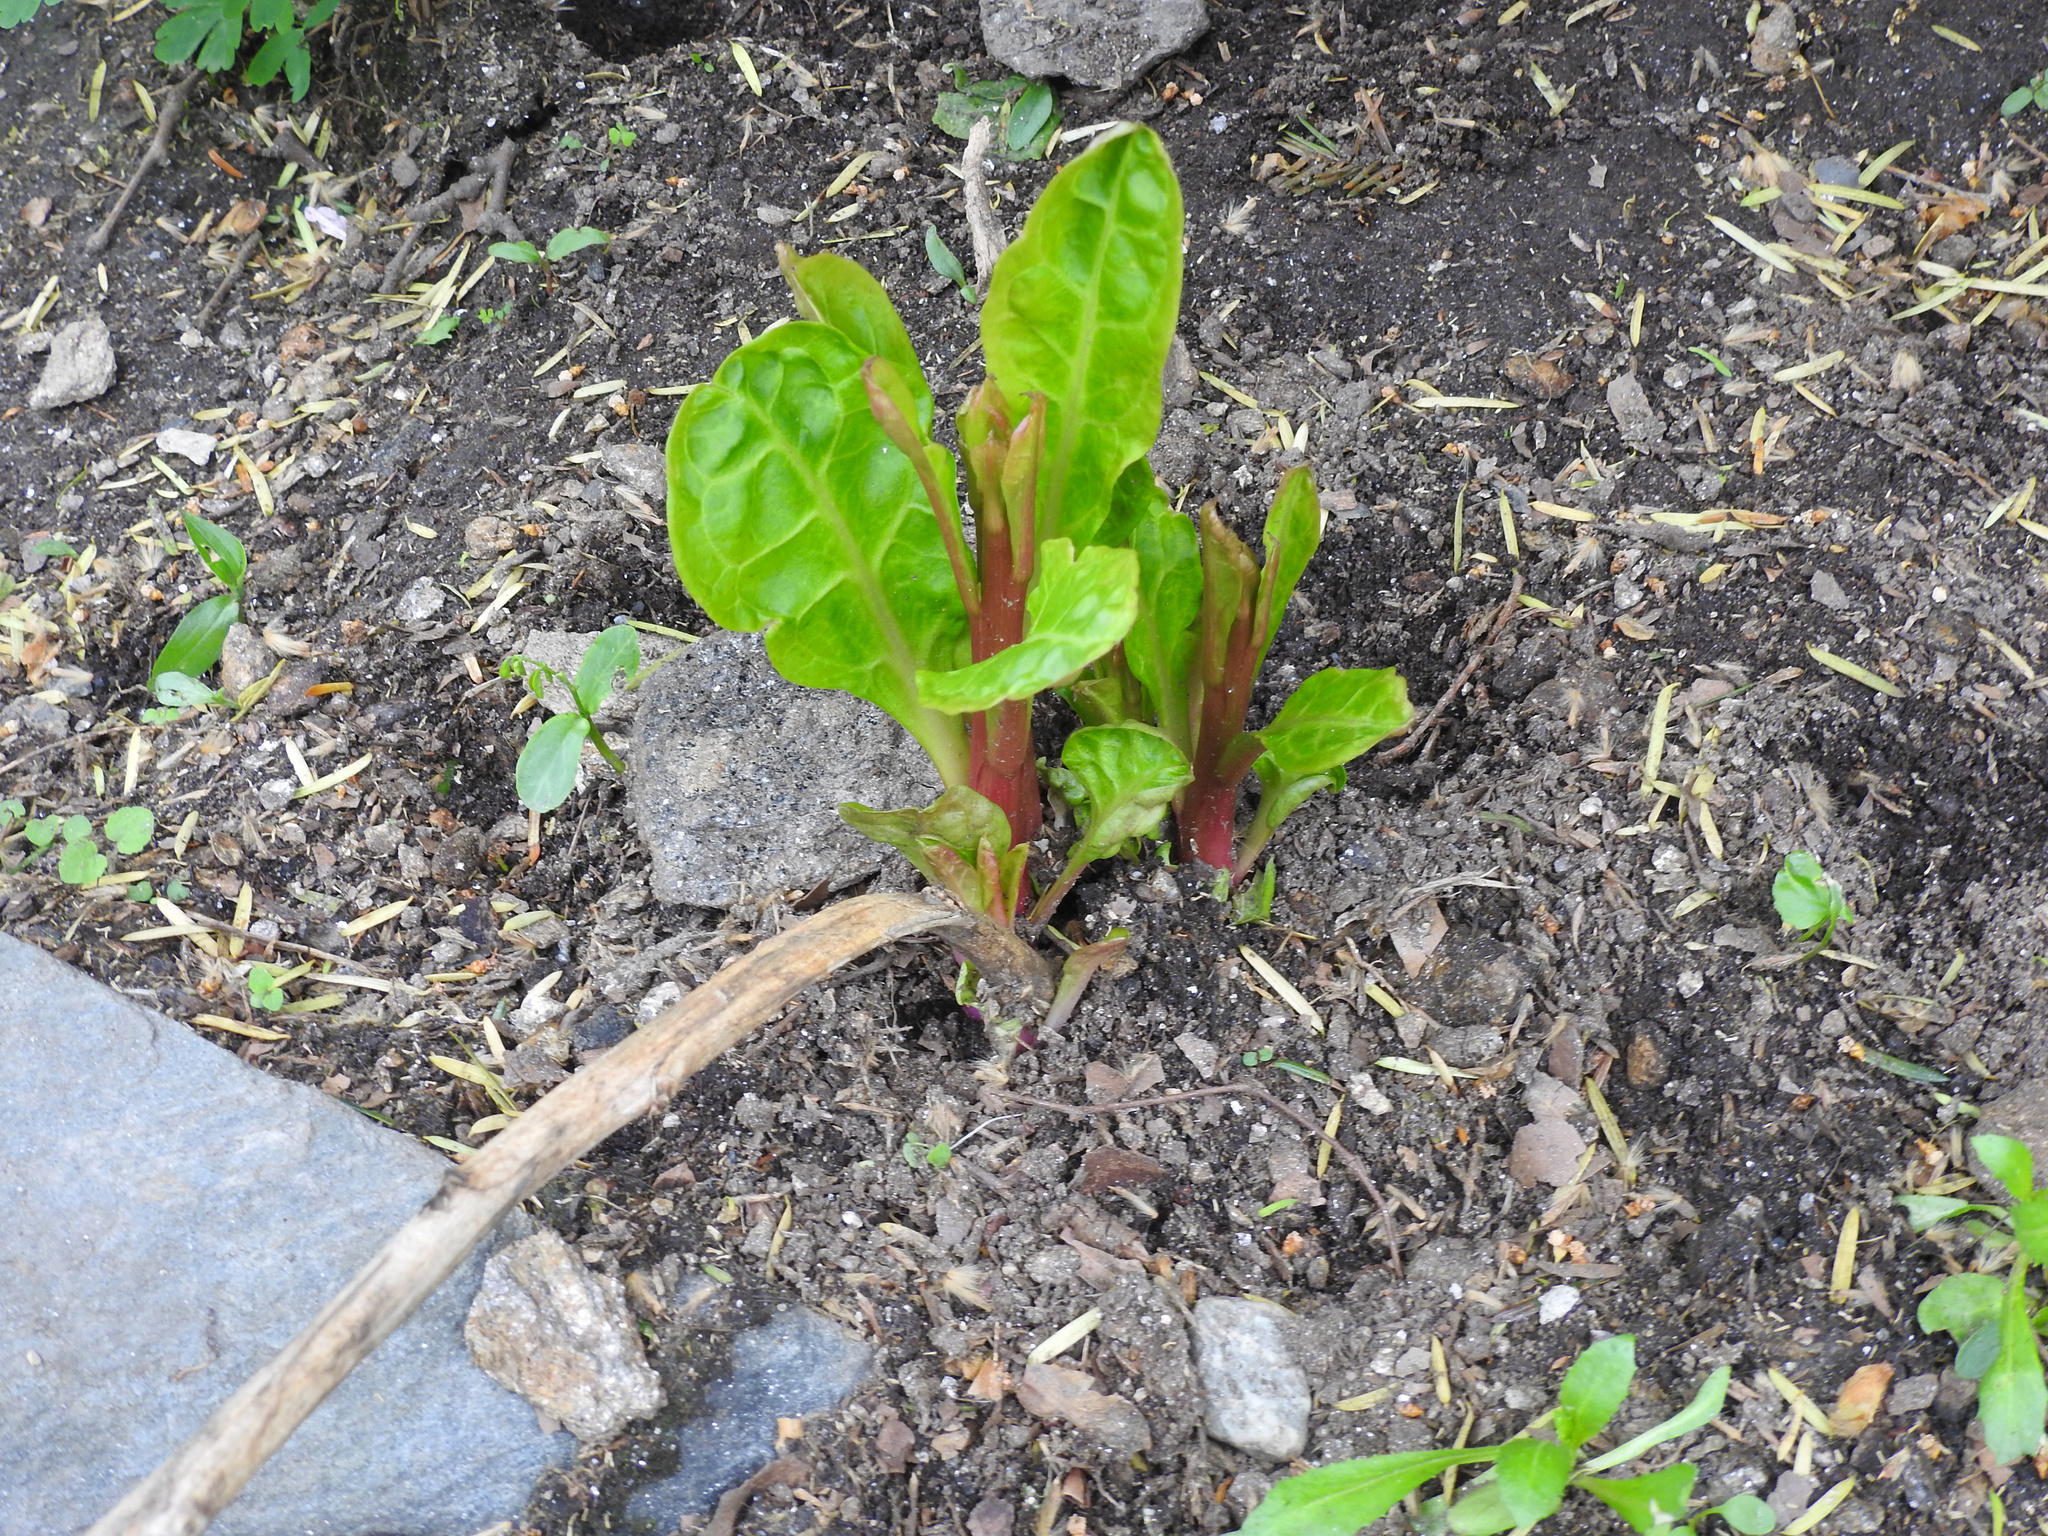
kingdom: Plantae
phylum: Tracheophyta
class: Magnoliopsida
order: Caryophyllales
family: Phytolaccaceae
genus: Phytolacca
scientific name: Phytolacca americana
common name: American pokeweed
